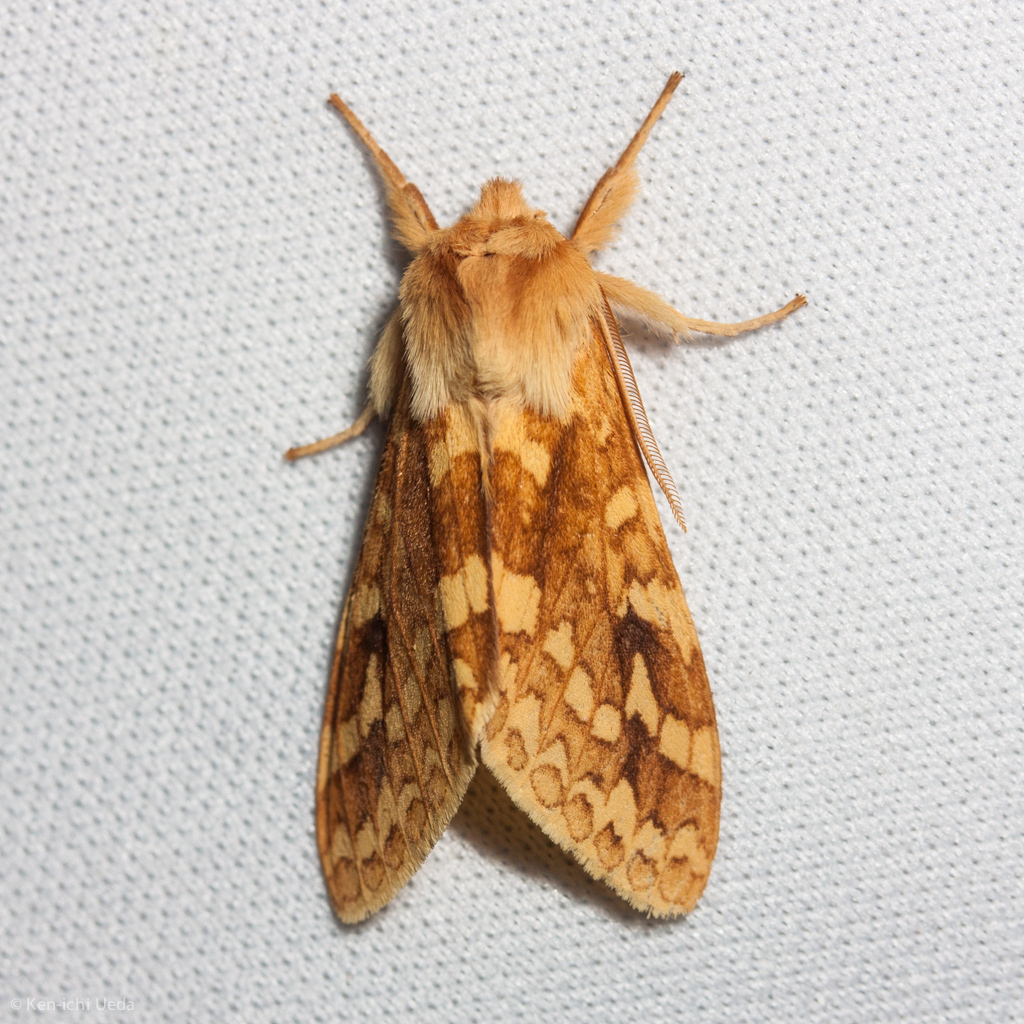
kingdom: Animalia
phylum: Arthropoda
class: Insecta
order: Lepidoptera
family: Erebidae
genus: Lophocampa
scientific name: Lophocampa maculata
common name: Spotted tussock moth
